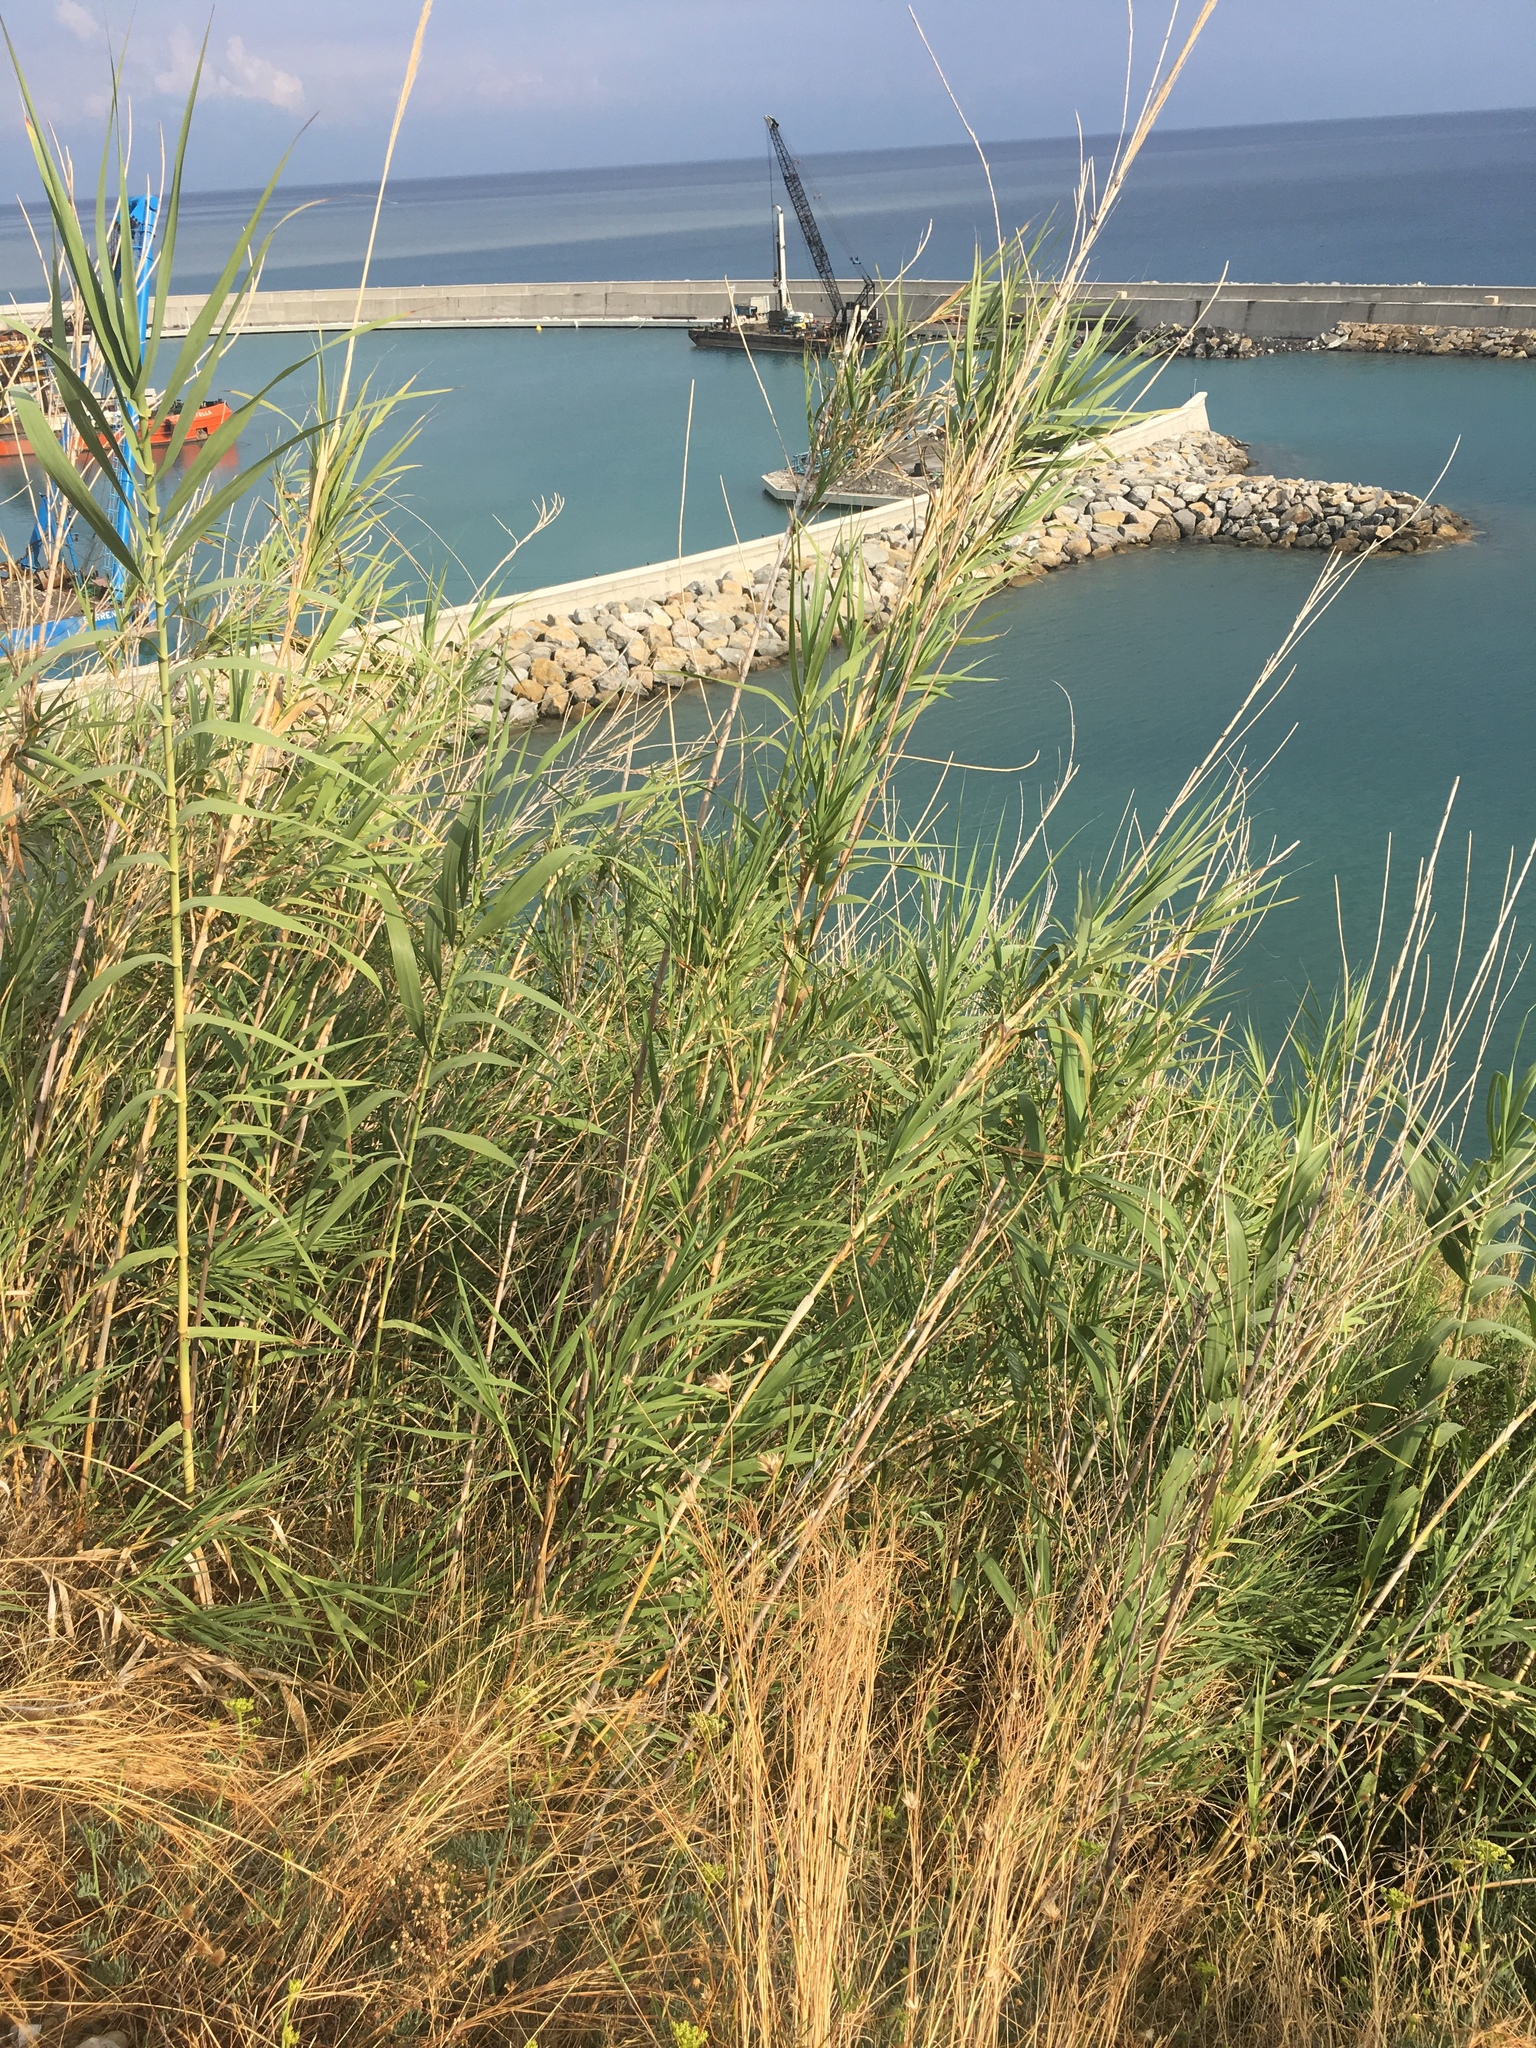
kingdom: Plantae
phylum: Tracheophyta
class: Liliopsida
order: Poales
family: Poaceae
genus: Arundo
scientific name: Arundo donax
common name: Giant reed
